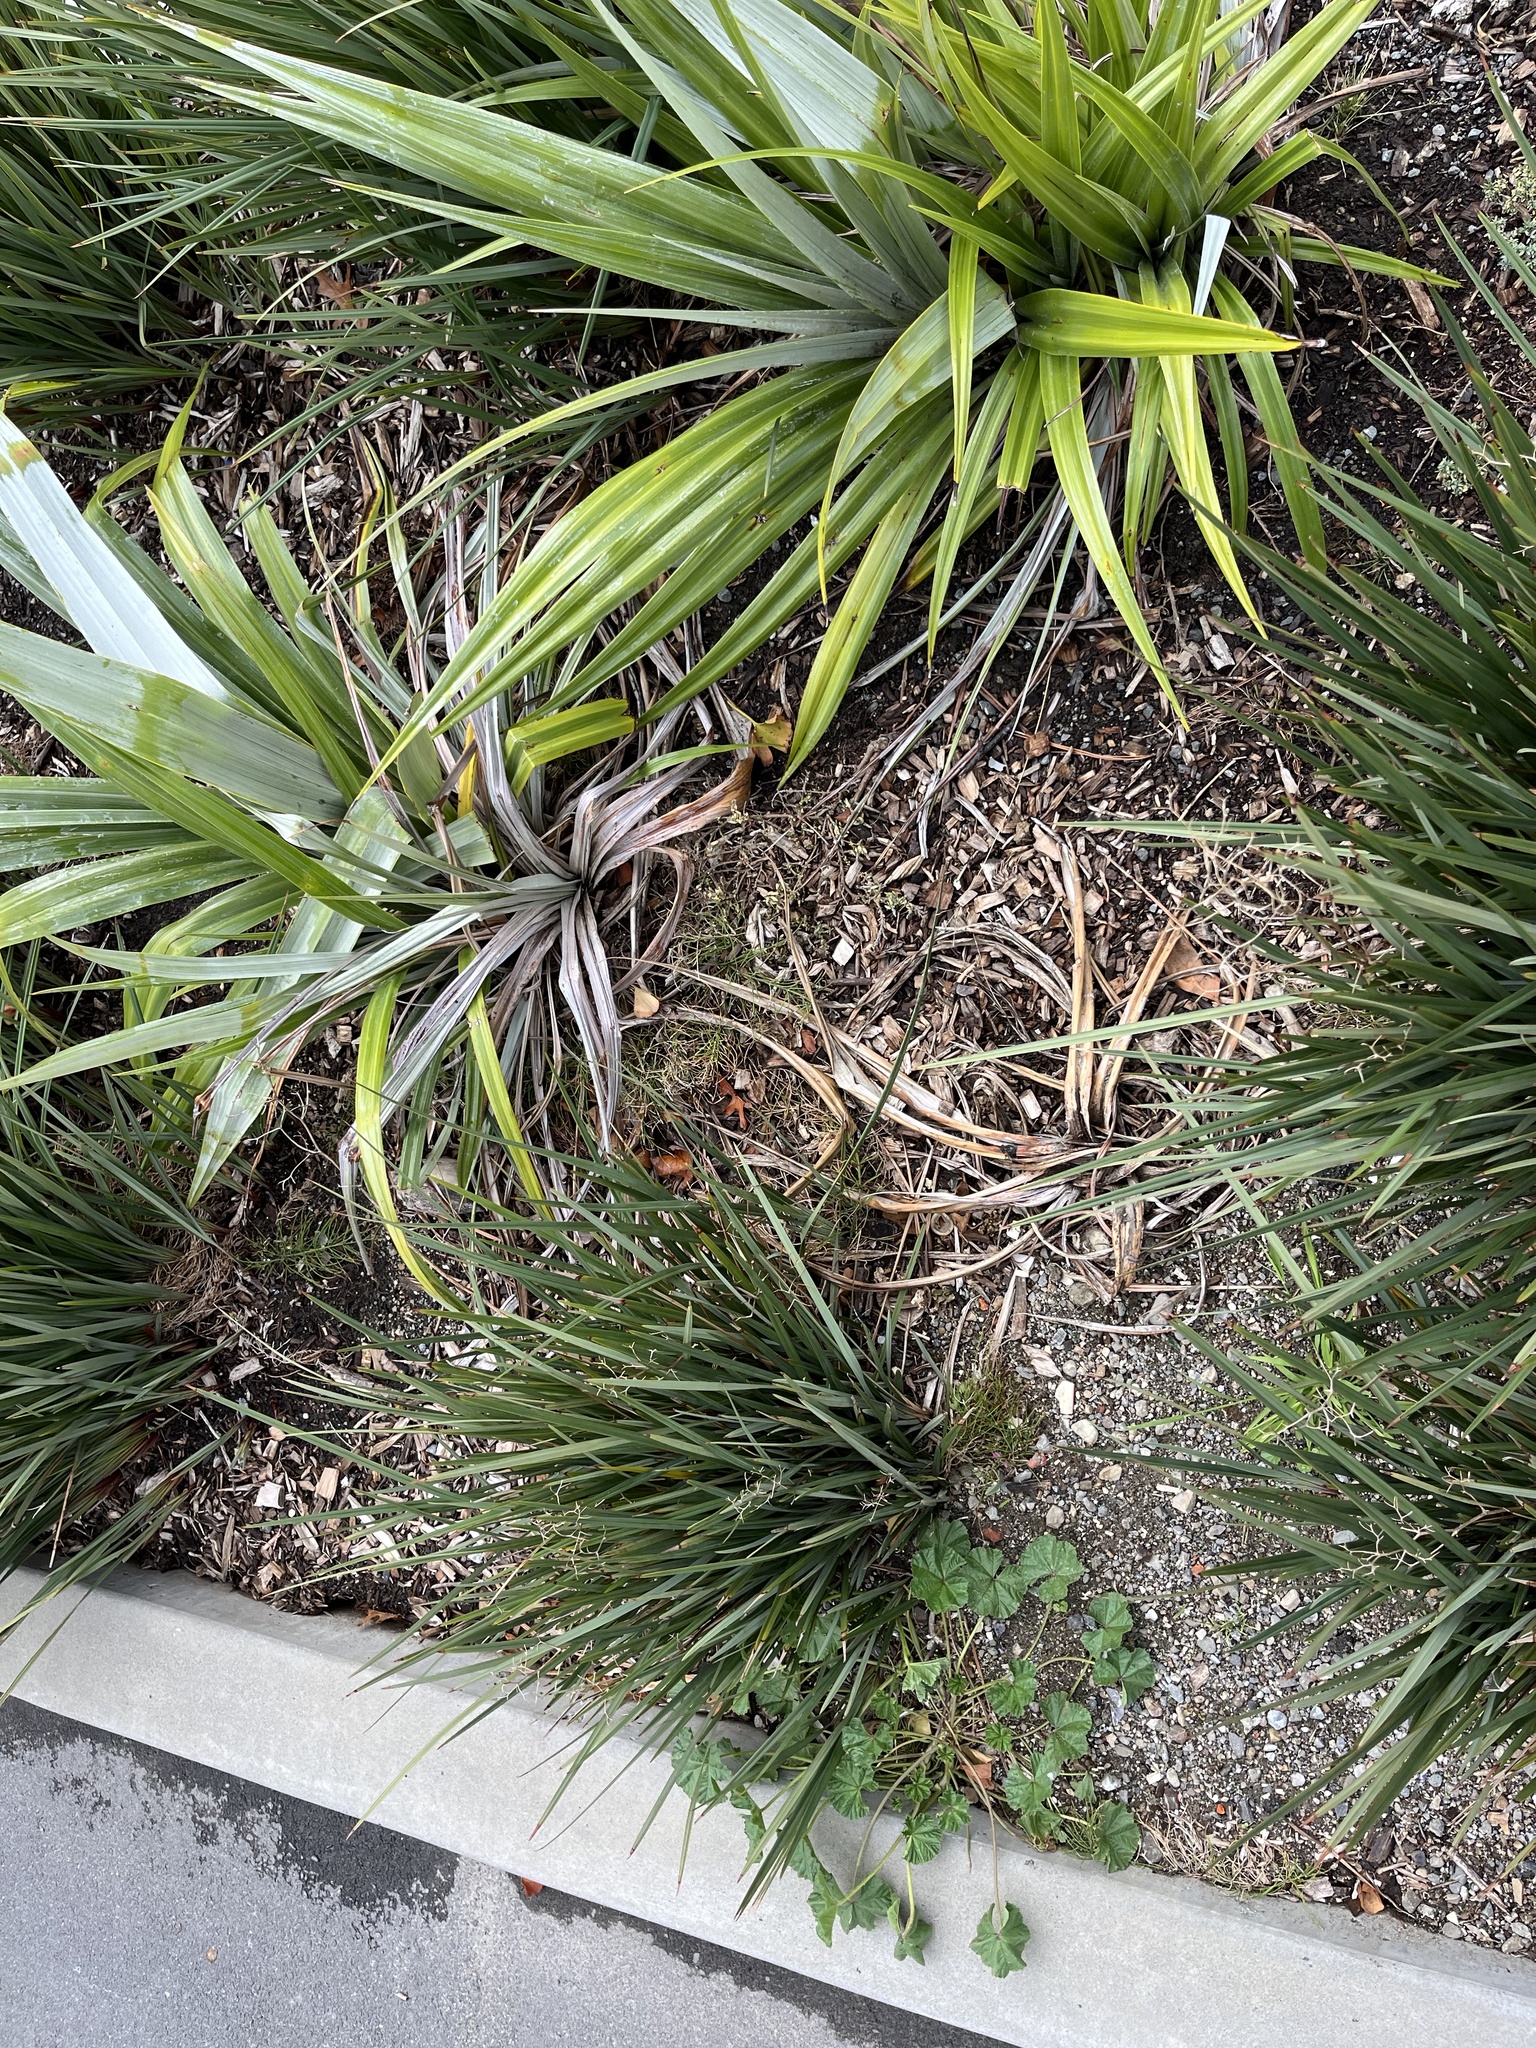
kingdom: Plantae
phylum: Tracheophyta
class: Polypodiopsida
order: Equisetales
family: Equisetaceae
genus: Equisetum
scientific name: Equisetum arvense
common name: Field horsetail
